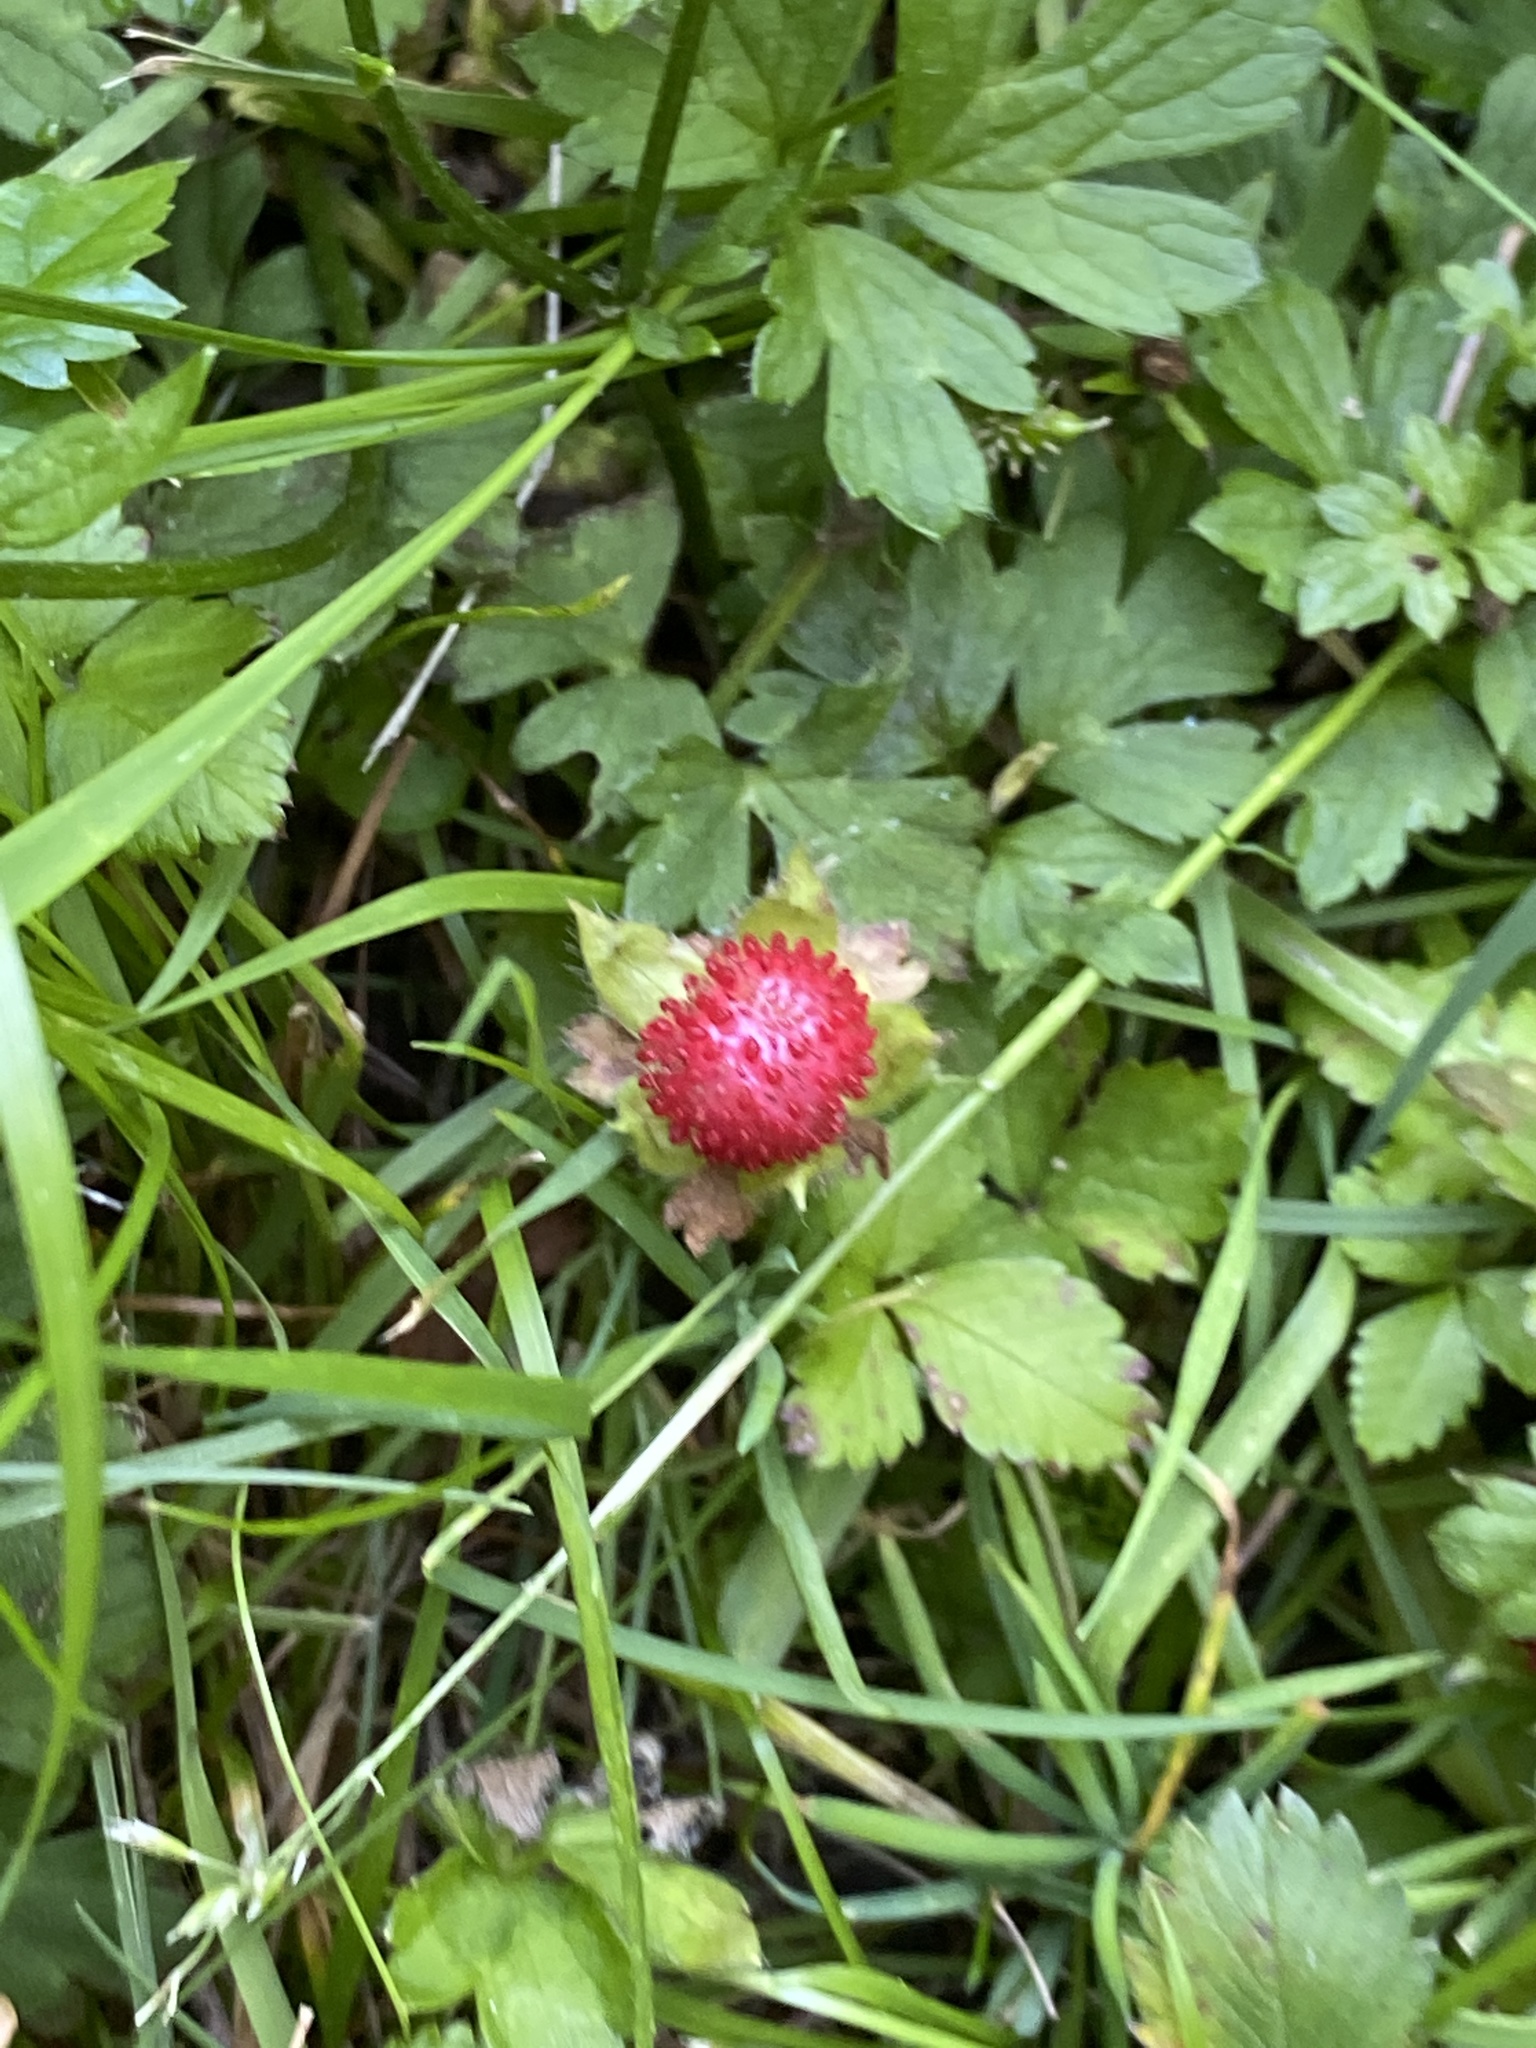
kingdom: Plantae
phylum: Tracheophyta
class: Magnoliopsida
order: Rosales
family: Rosaceae
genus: Potentilla
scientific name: Potentilla indica
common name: Yellow-flowered strawberry
